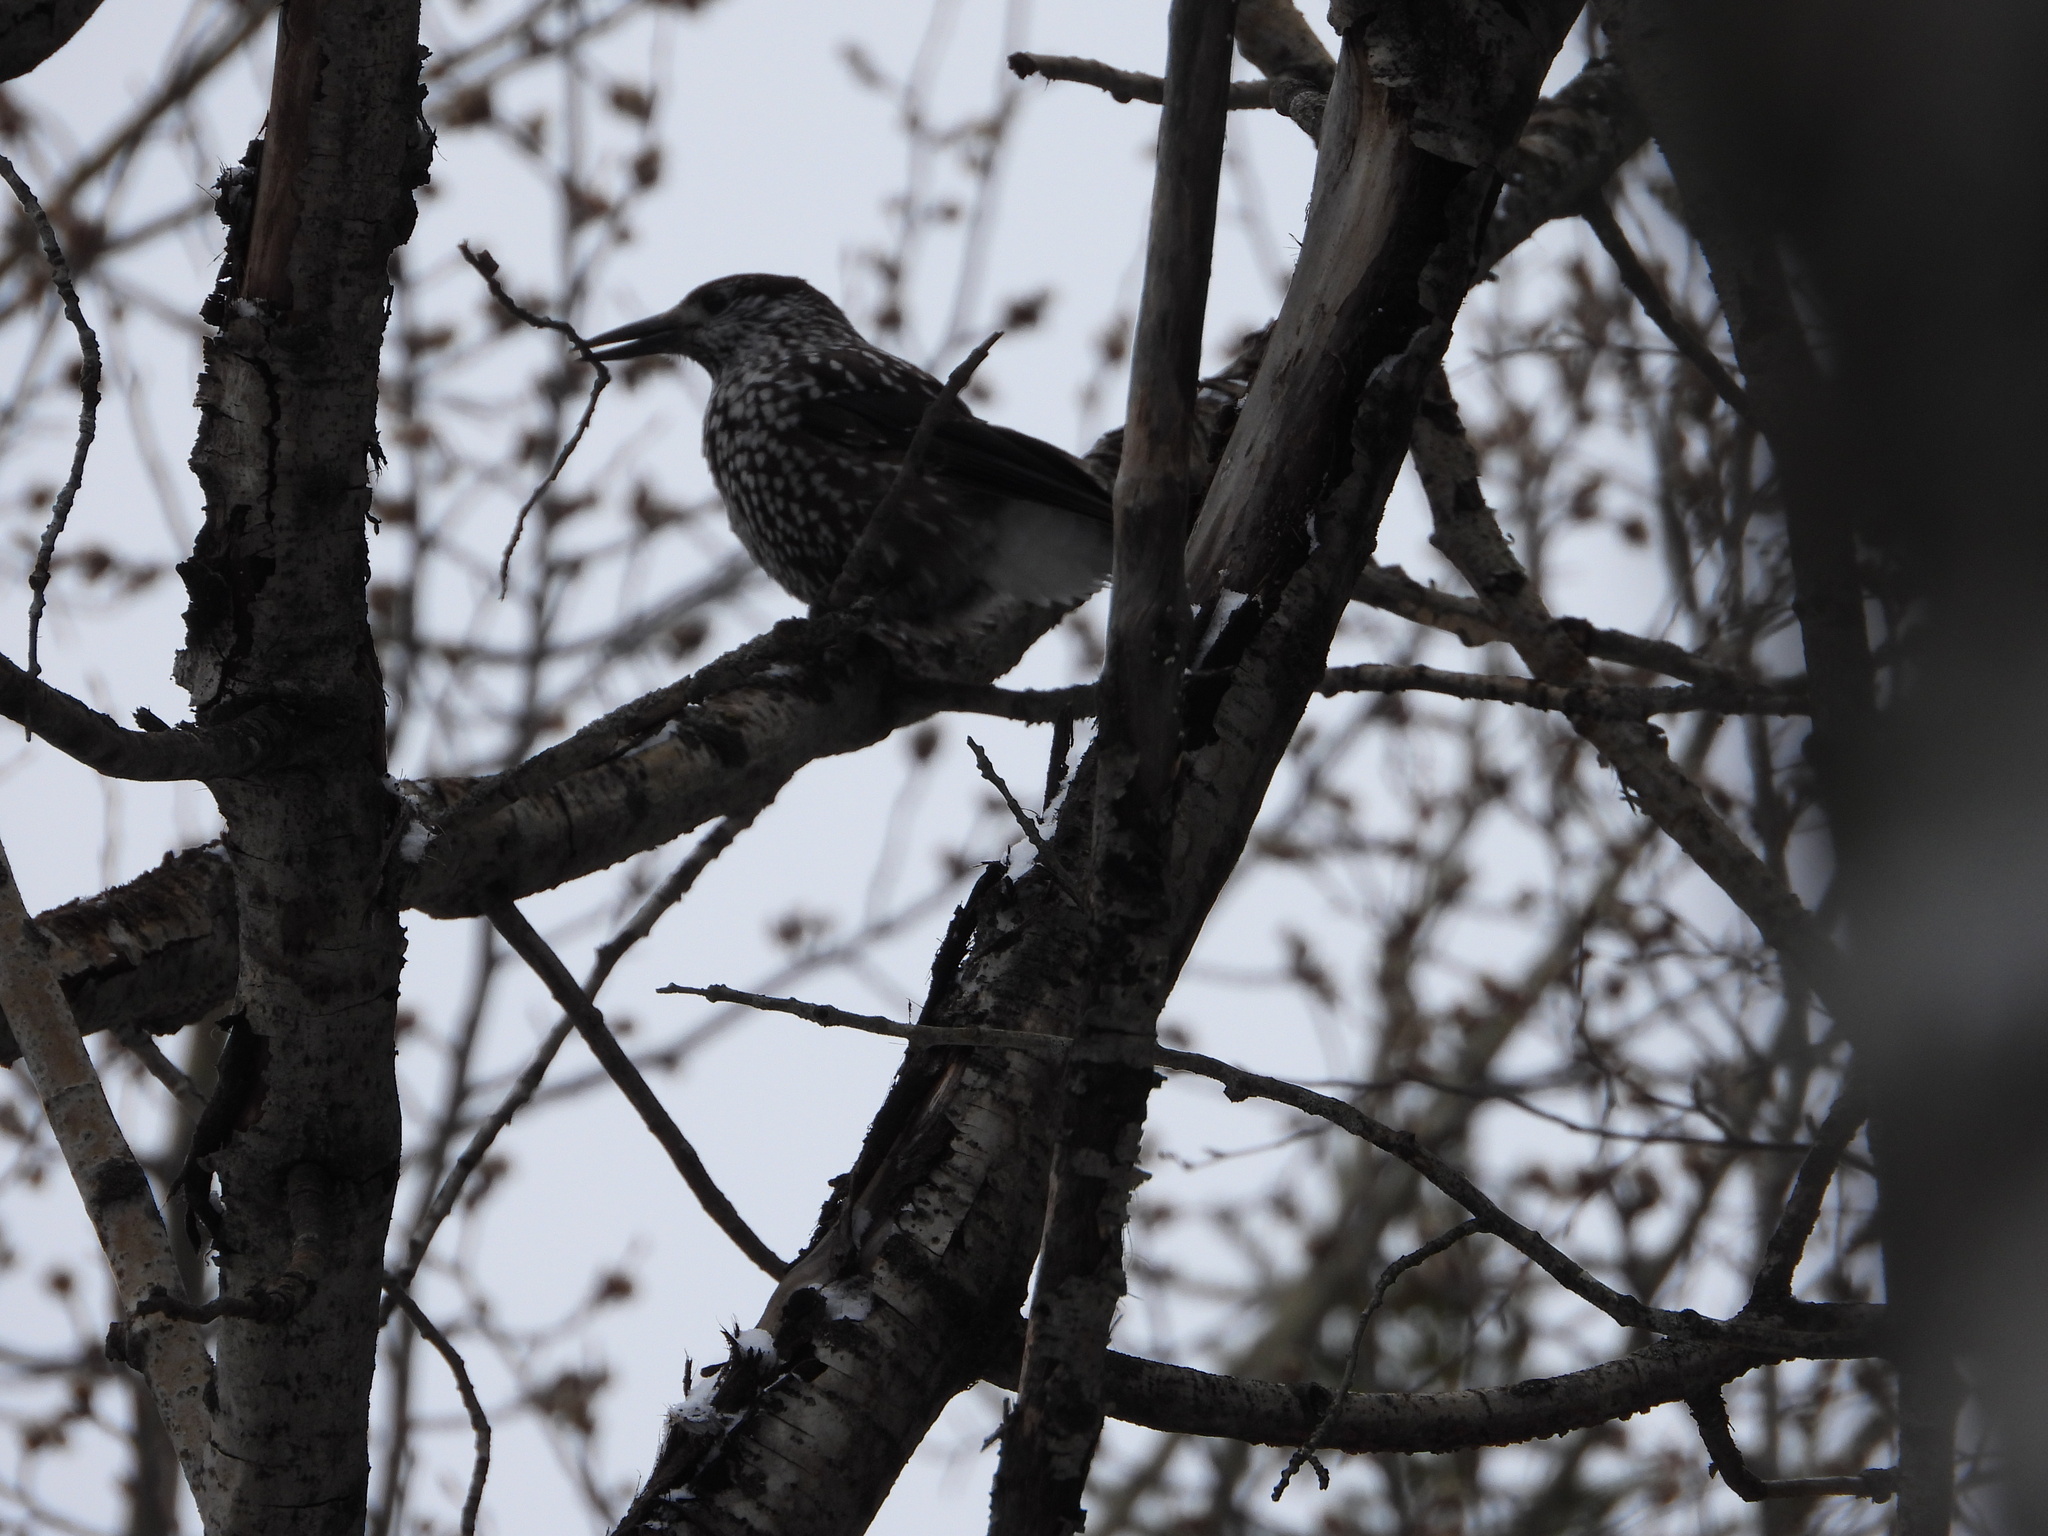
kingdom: Animalia
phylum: Chordata
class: Aves
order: Passeriformes
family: Corvidae
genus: Nucifraga
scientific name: Nucifraga caryocatactes
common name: Spotted nutcracker
